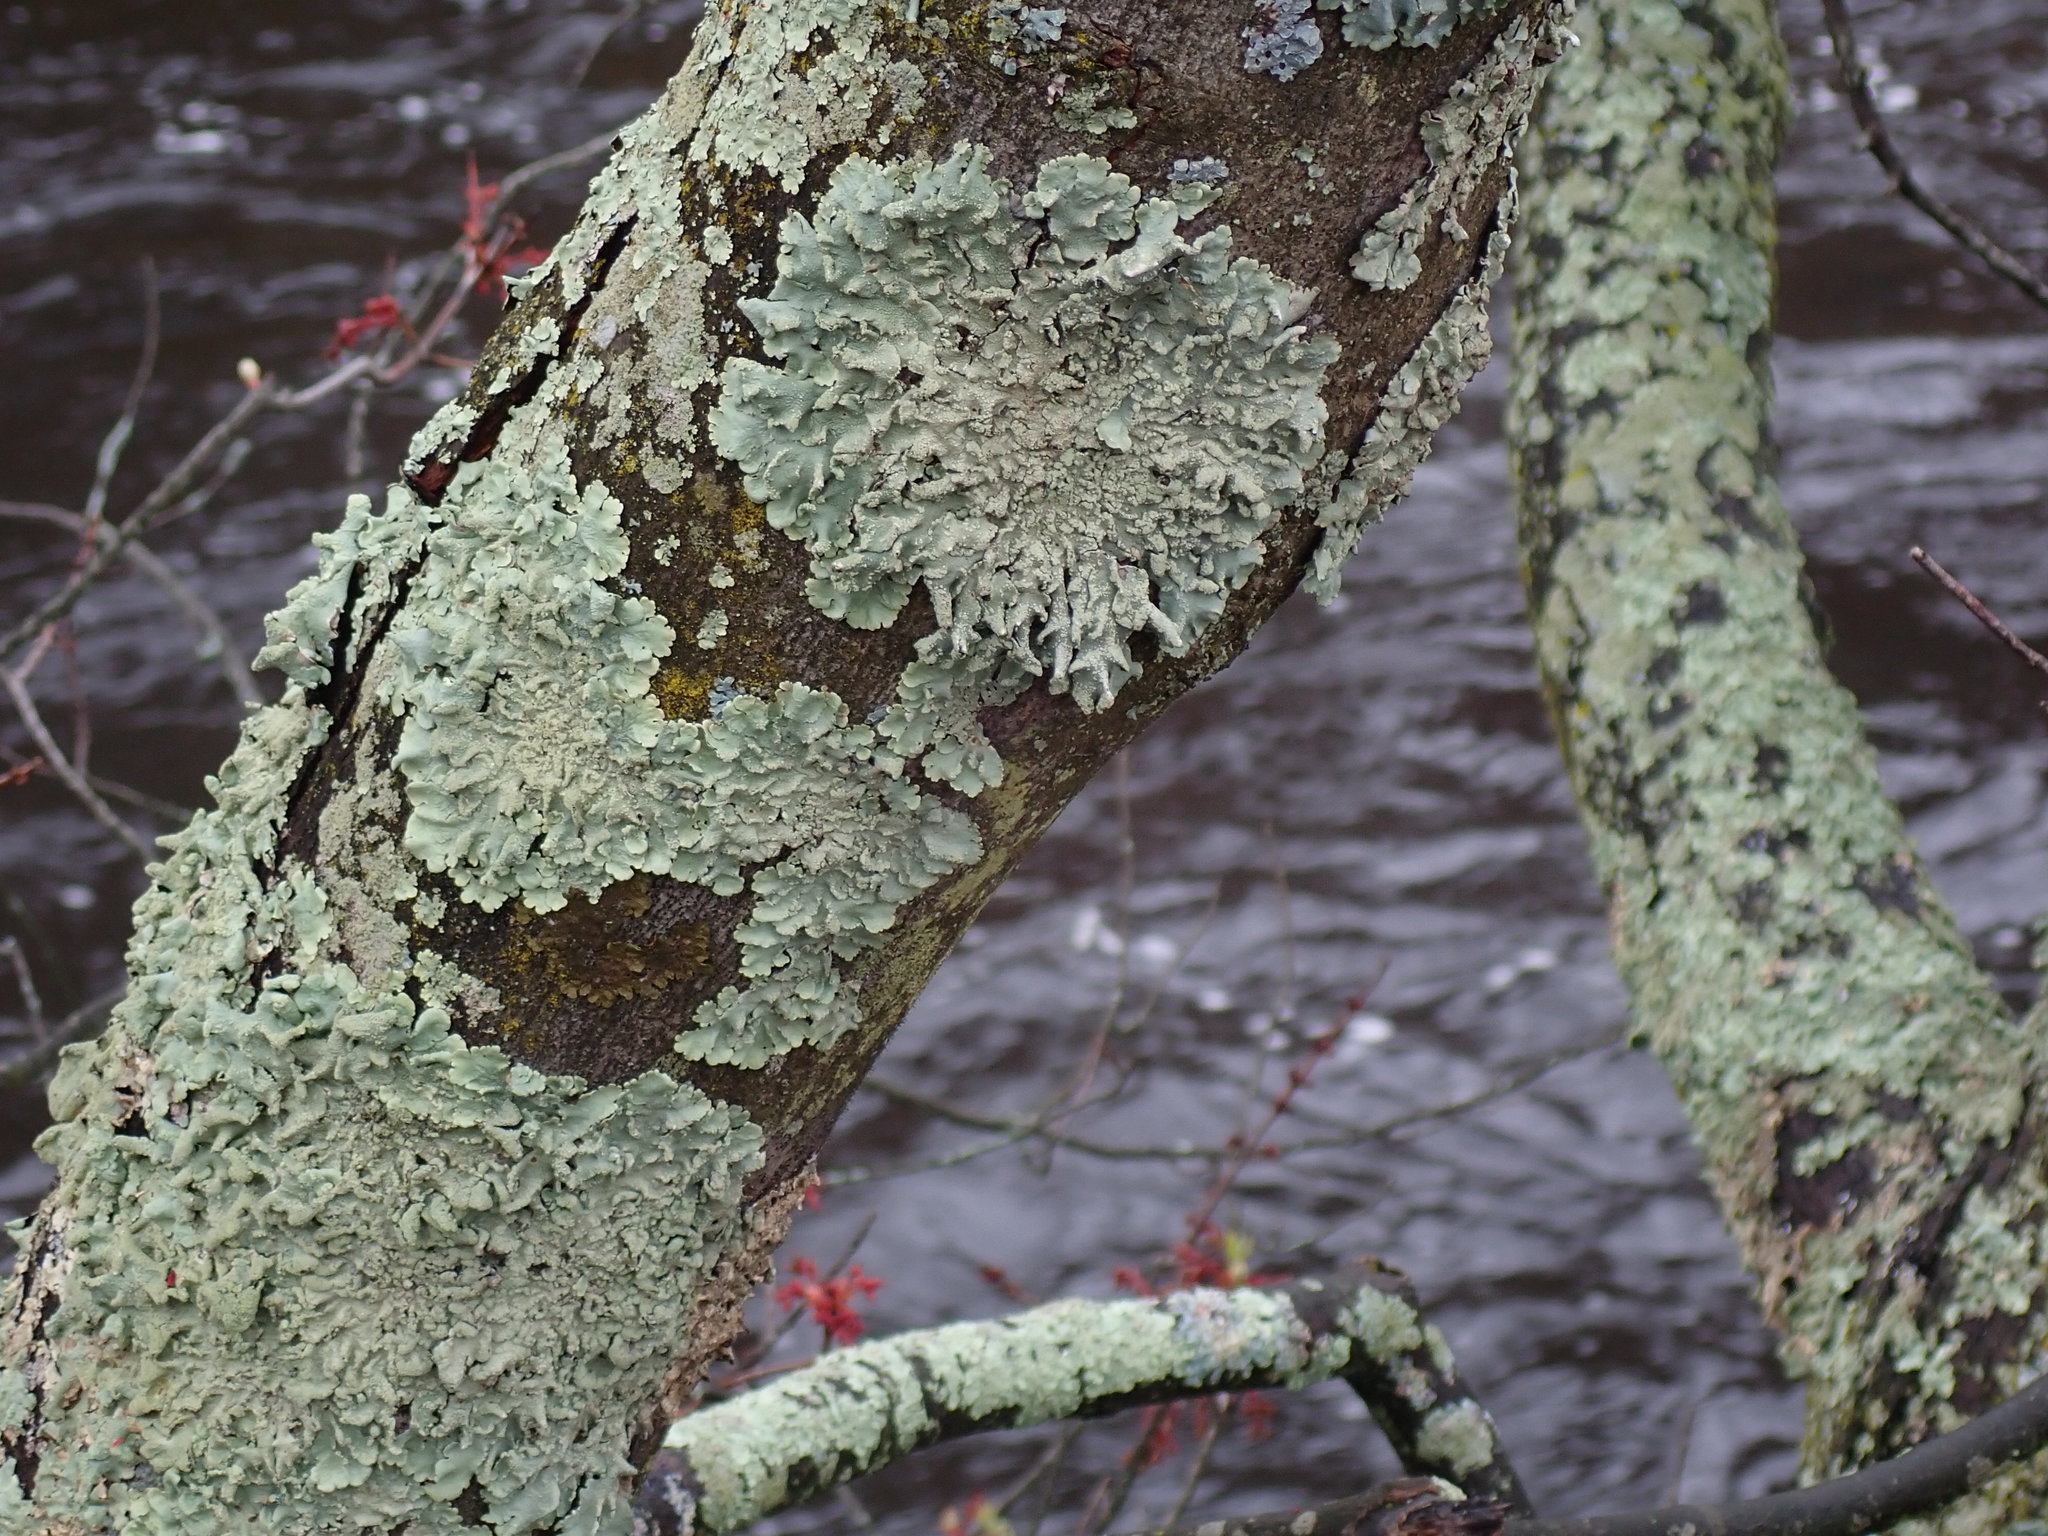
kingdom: Fungi
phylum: Ascomycota
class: Lecanoromycetes
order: Lecanorales
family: Parmeliaceae
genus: Flavoparmelia
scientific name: Flavoparmelia caperata
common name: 40-mile per hour lichen
